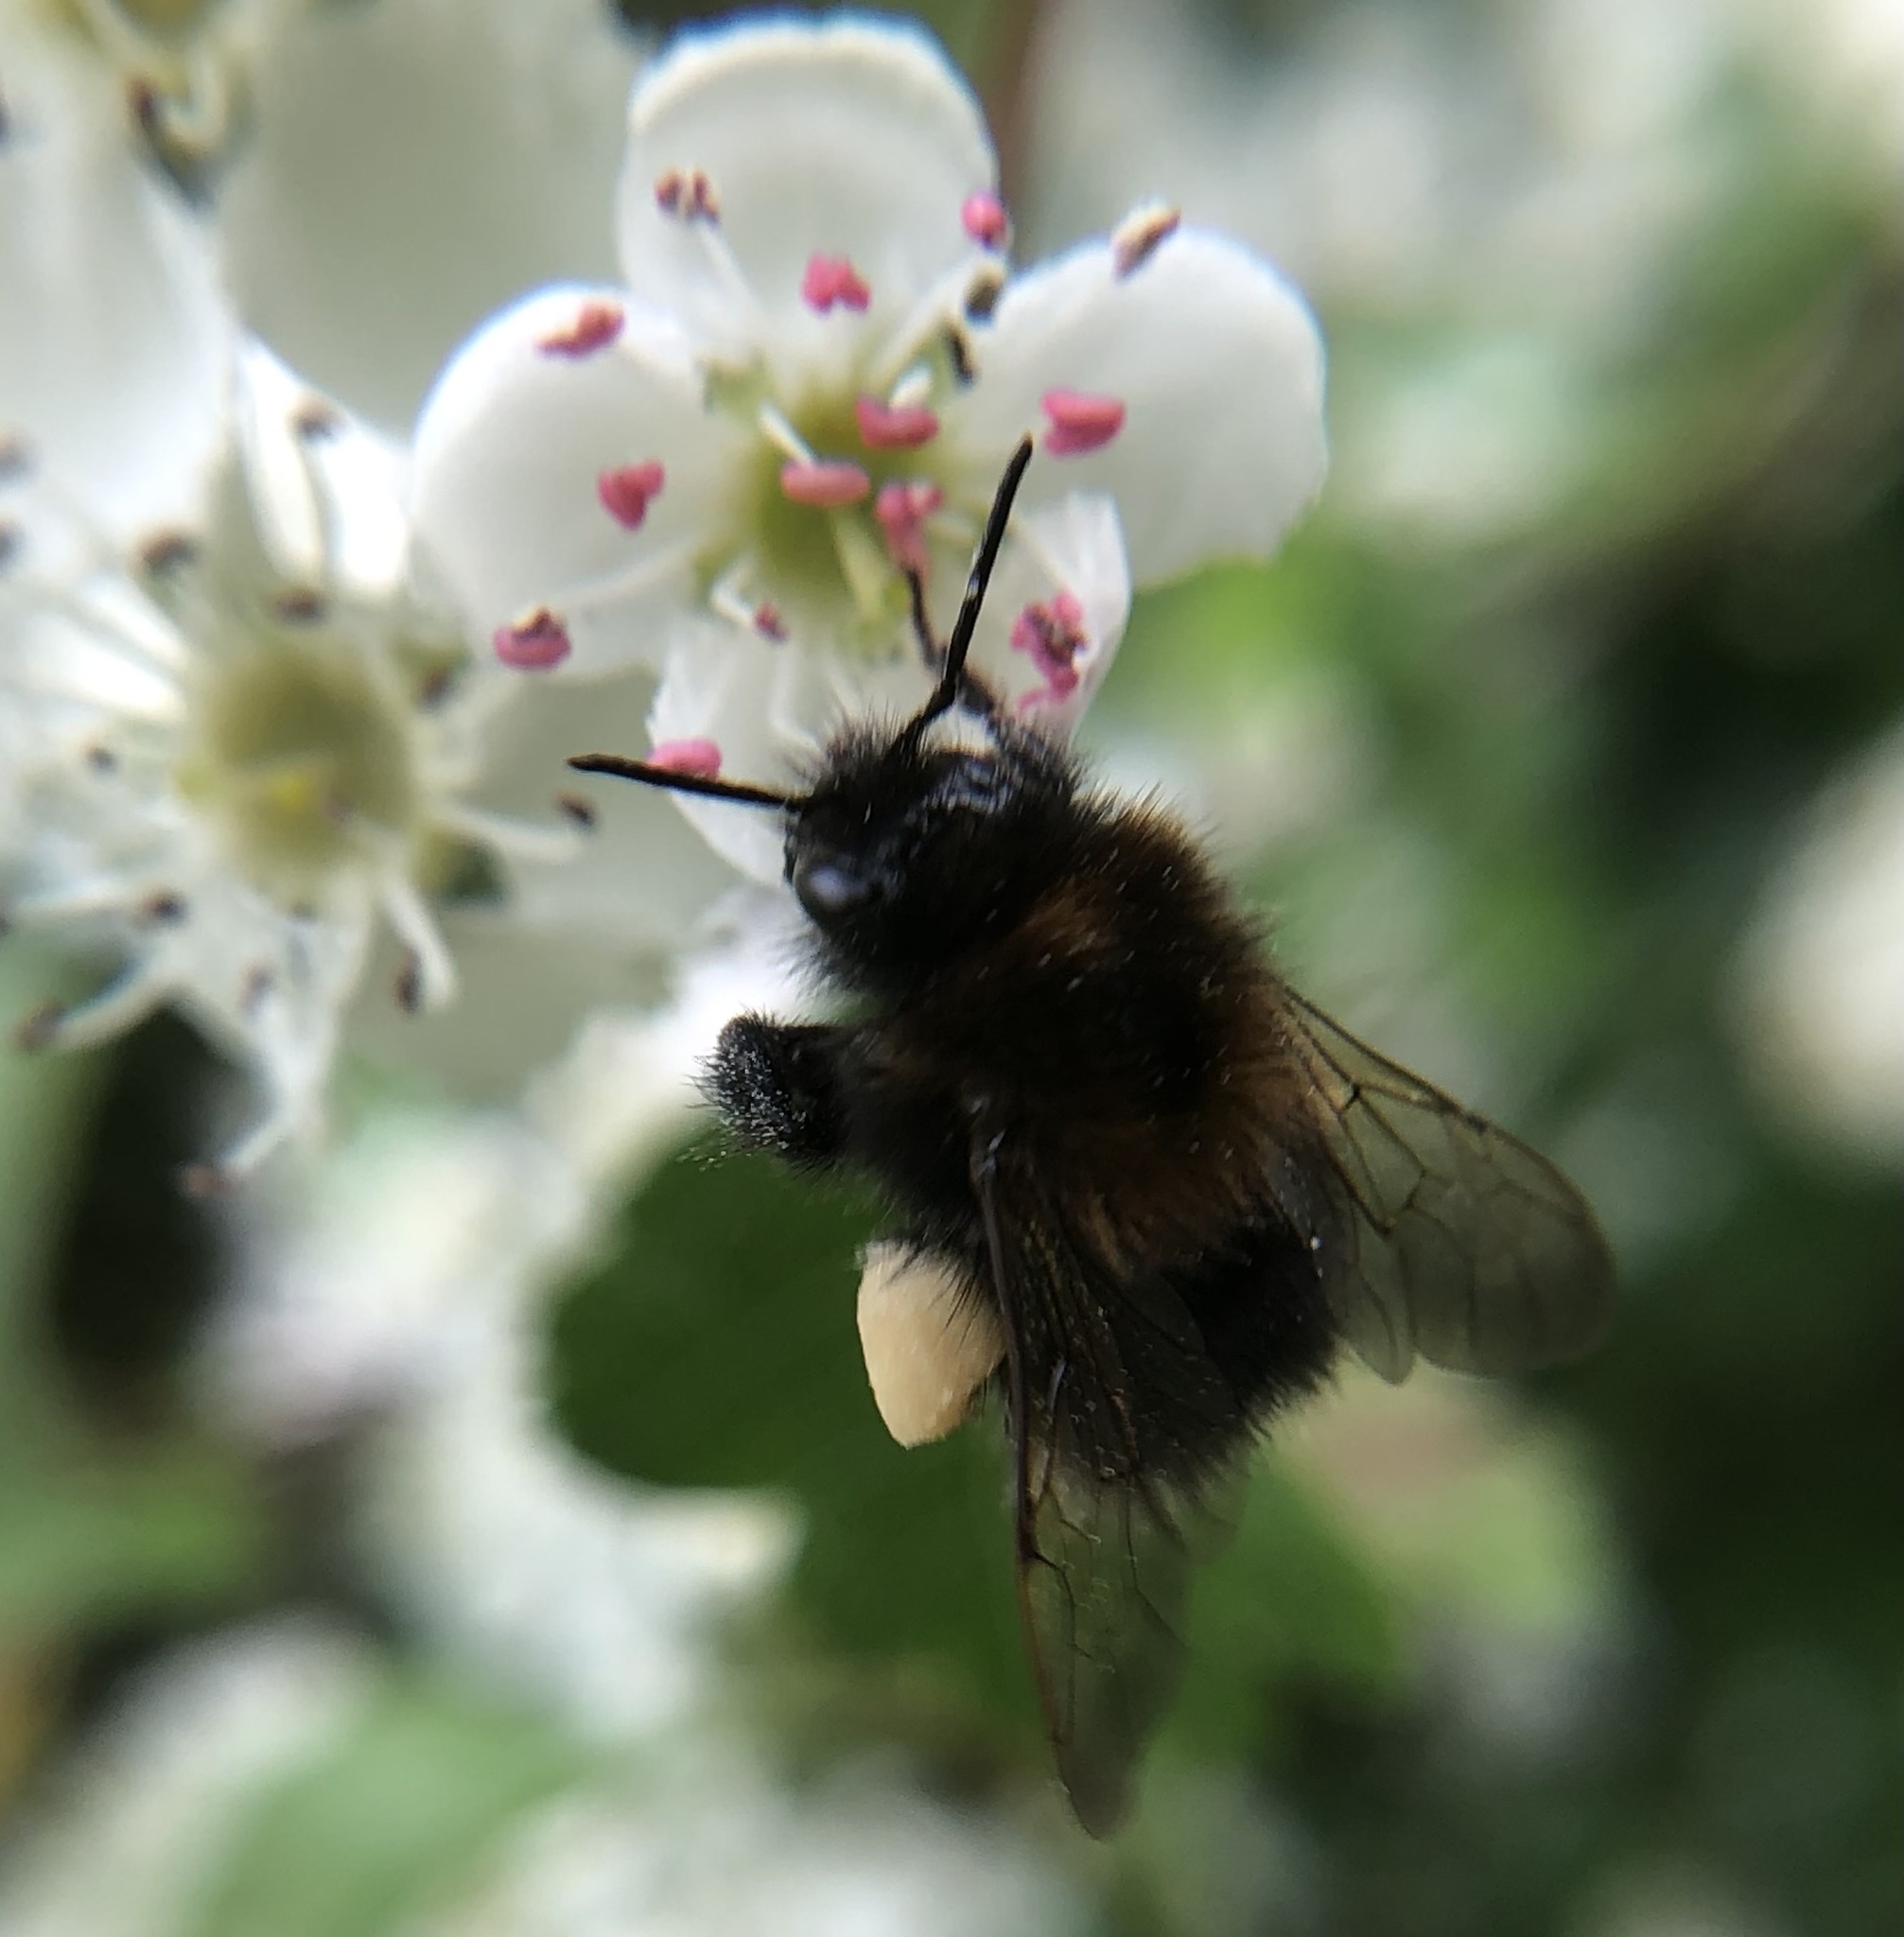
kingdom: Animalia
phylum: Arthropoda
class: Insecta
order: Hymenoptera
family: Apidae
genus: Bombus
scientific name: Bombus hypnorum
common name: New garden bumblebee
